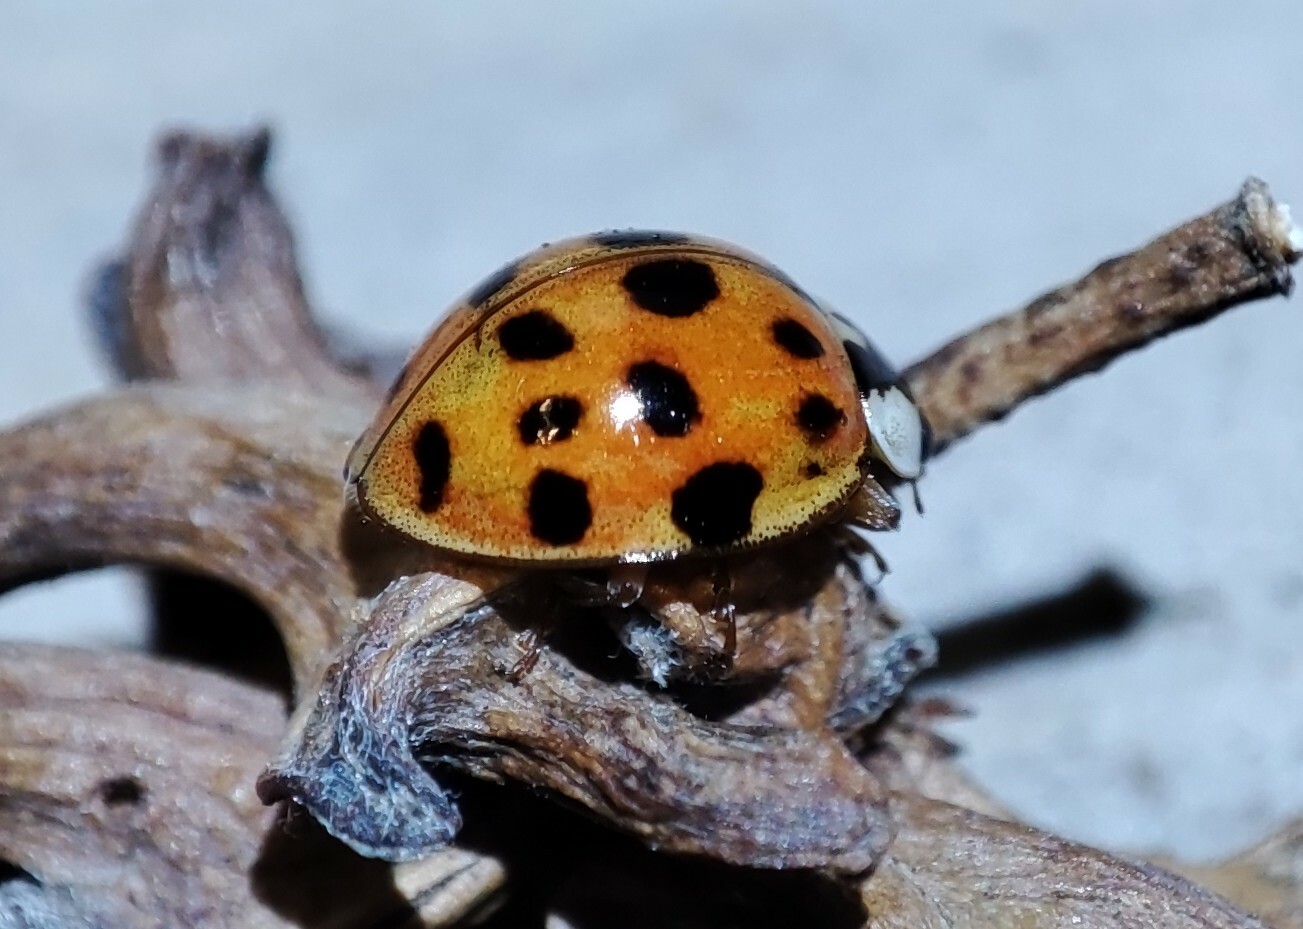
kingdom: Animalia
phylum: Arthropoda
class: Insecta
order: Coleoptera
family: Coccinellidae
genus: Harmonia
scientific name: Harmonia axyridis
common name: Harlequin ladybird
